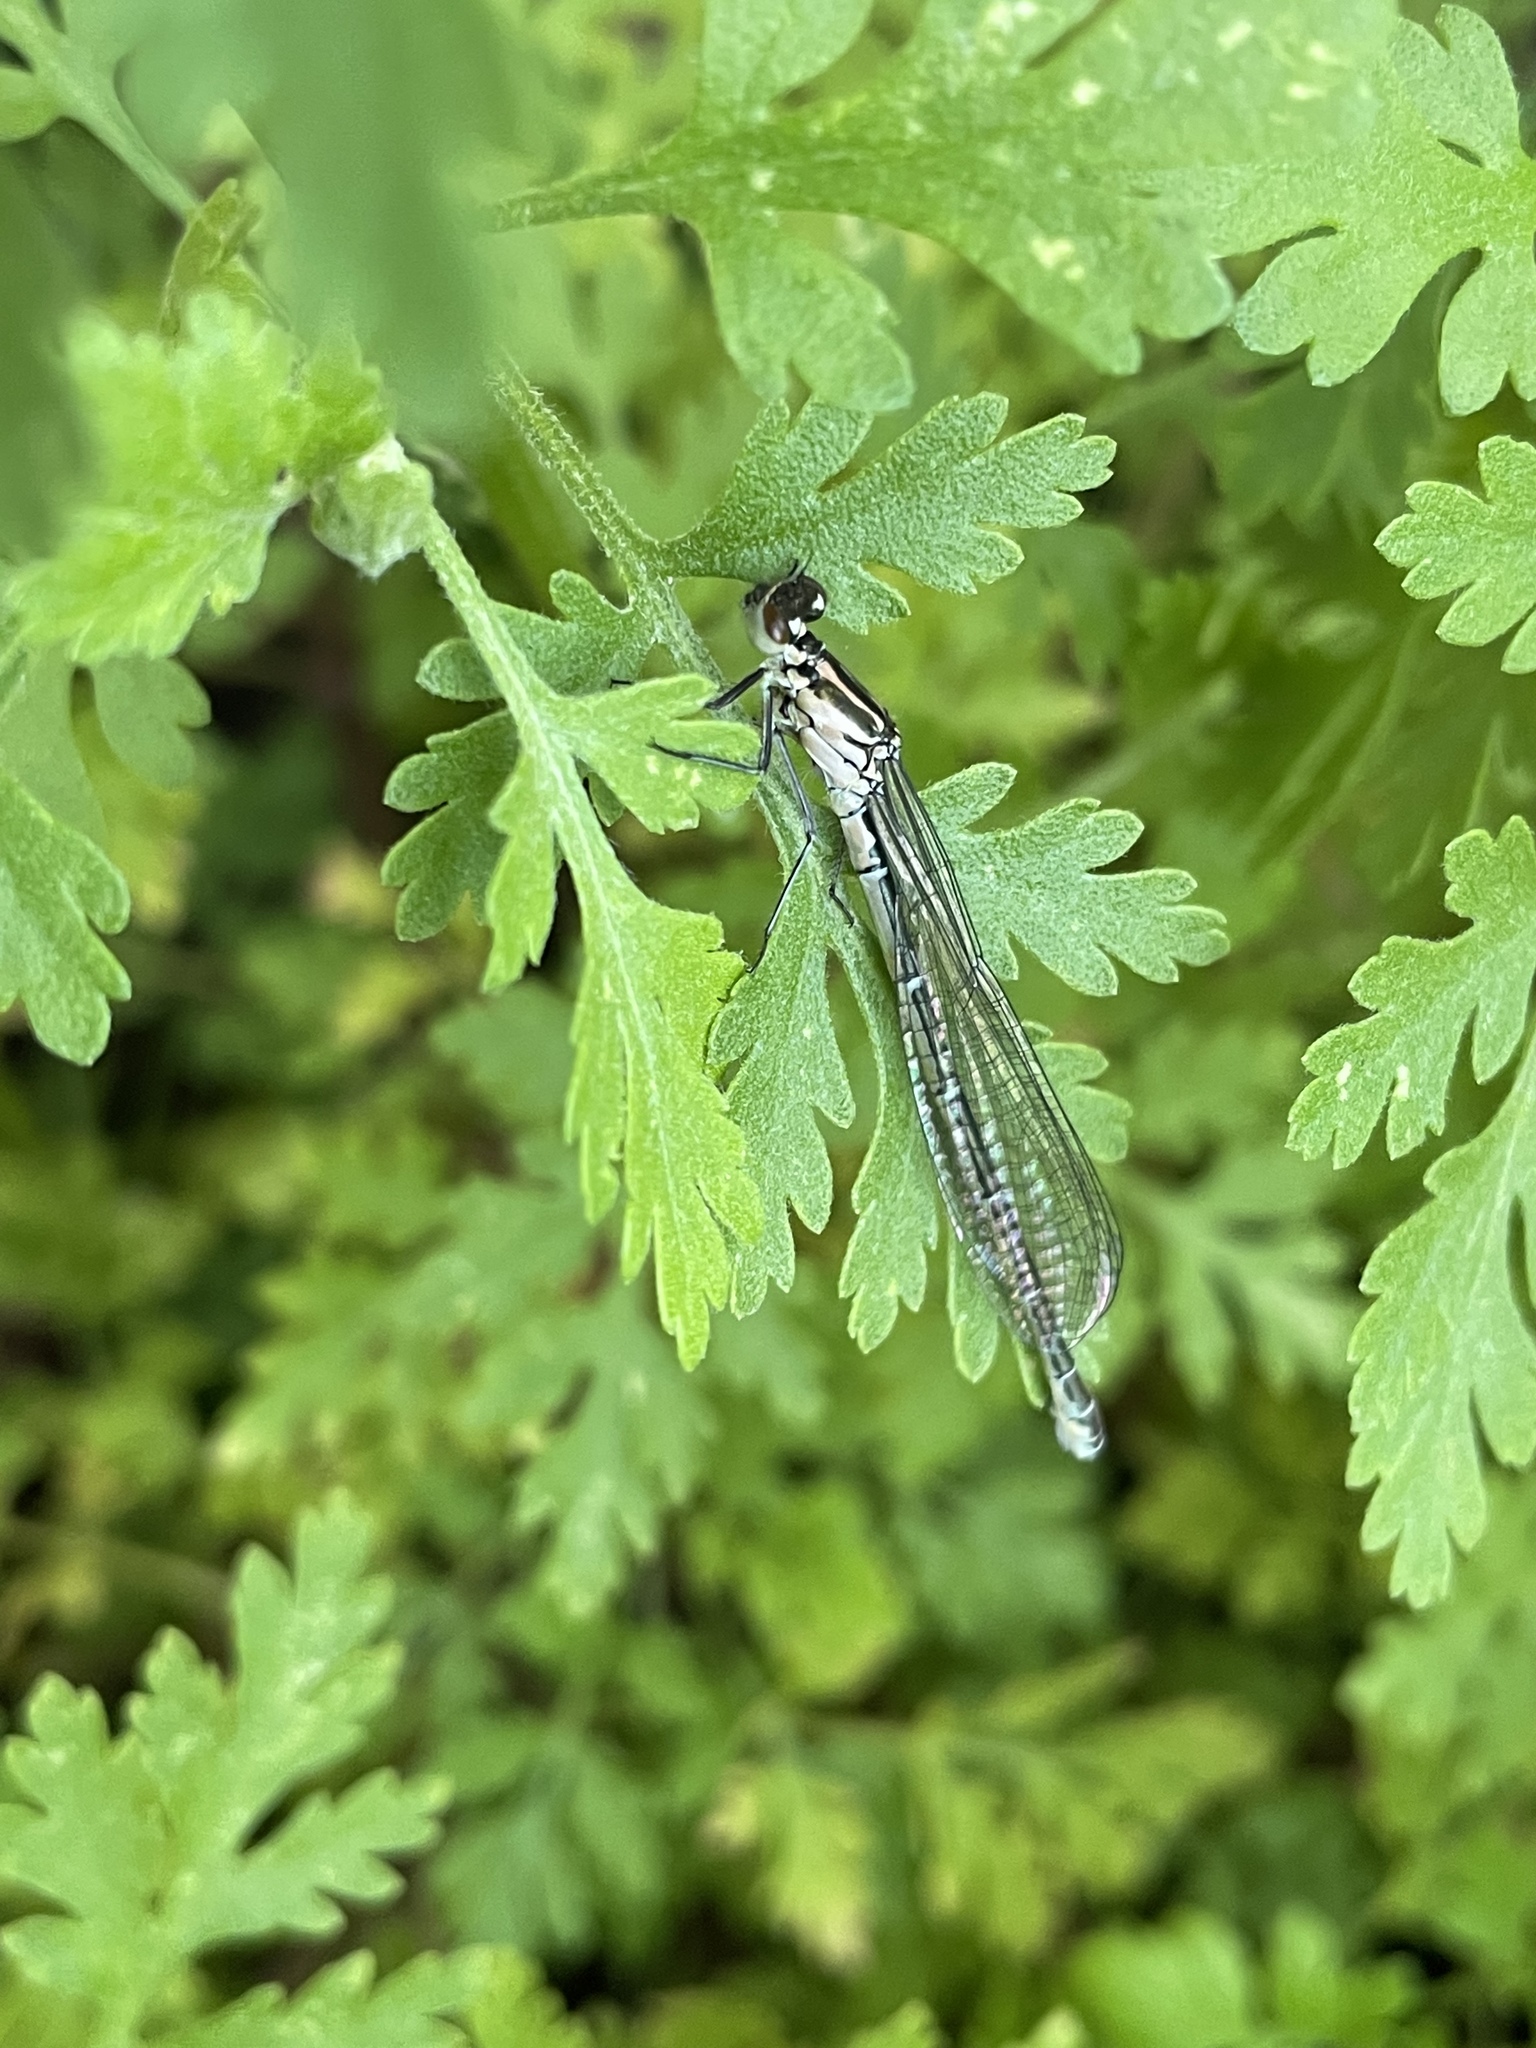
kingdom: Animalia
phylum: Arthropoda
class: Insecta
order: Odonata
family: Coenagrionidae
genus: Coenagrion
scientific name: Coenagrion puella
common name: Azure damselfly
